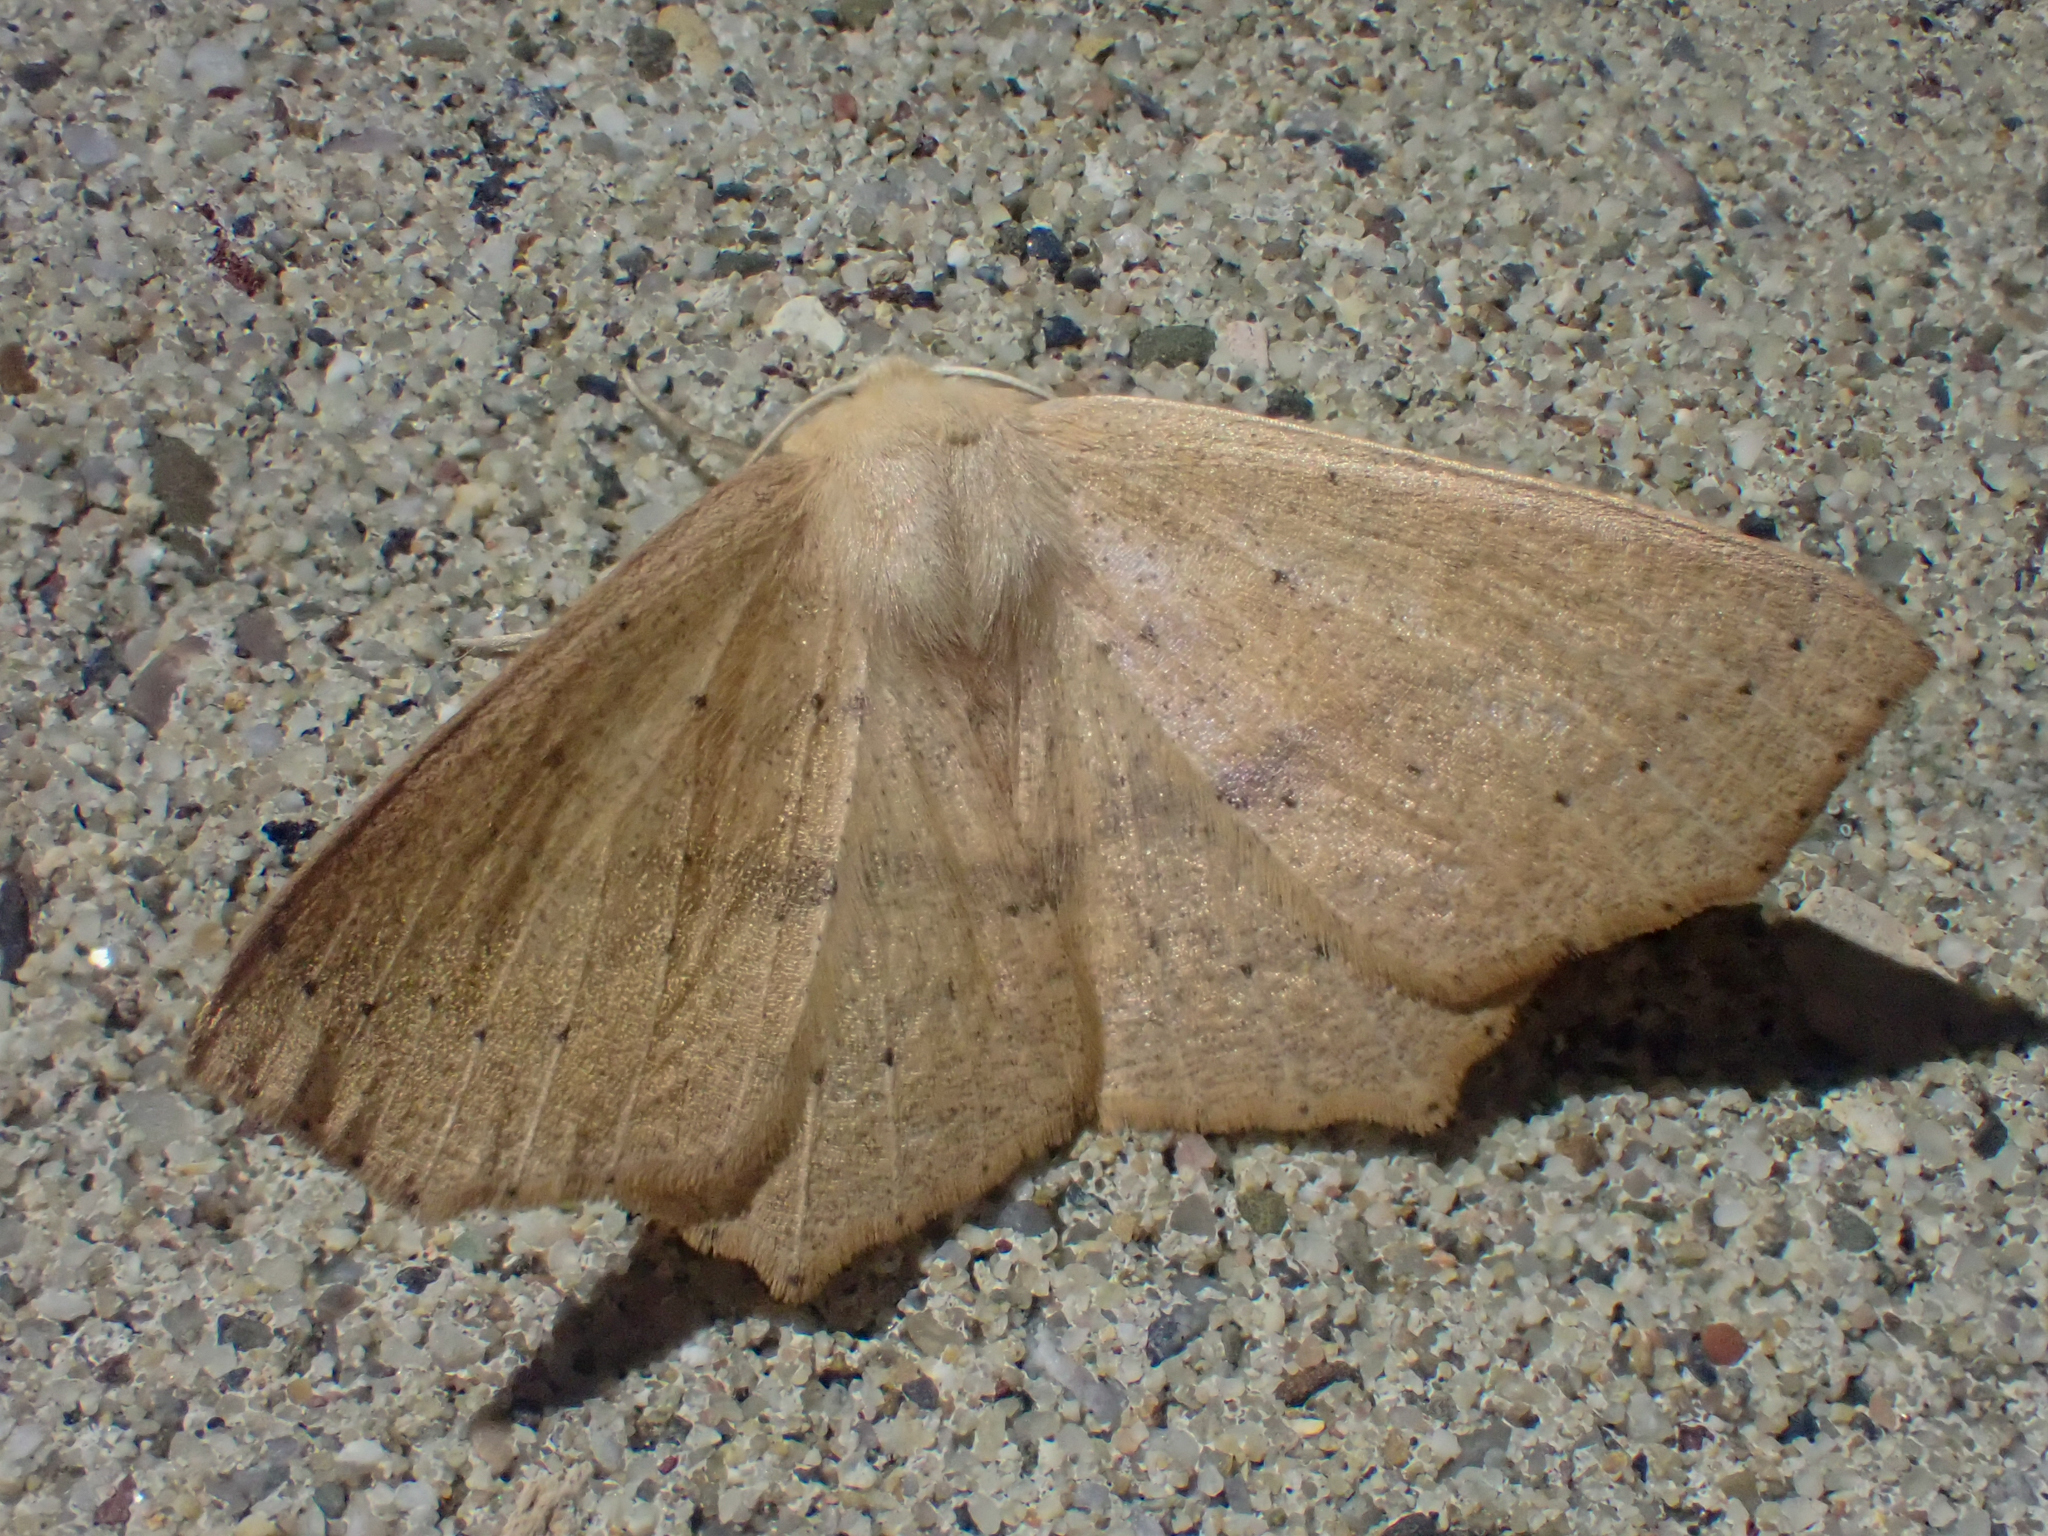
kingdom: Animalia
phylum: Arthropoda
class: Insecta
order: Lepidoptera
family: Geometridae
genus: Sabulodes
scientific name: Sabulodes aegrotata
